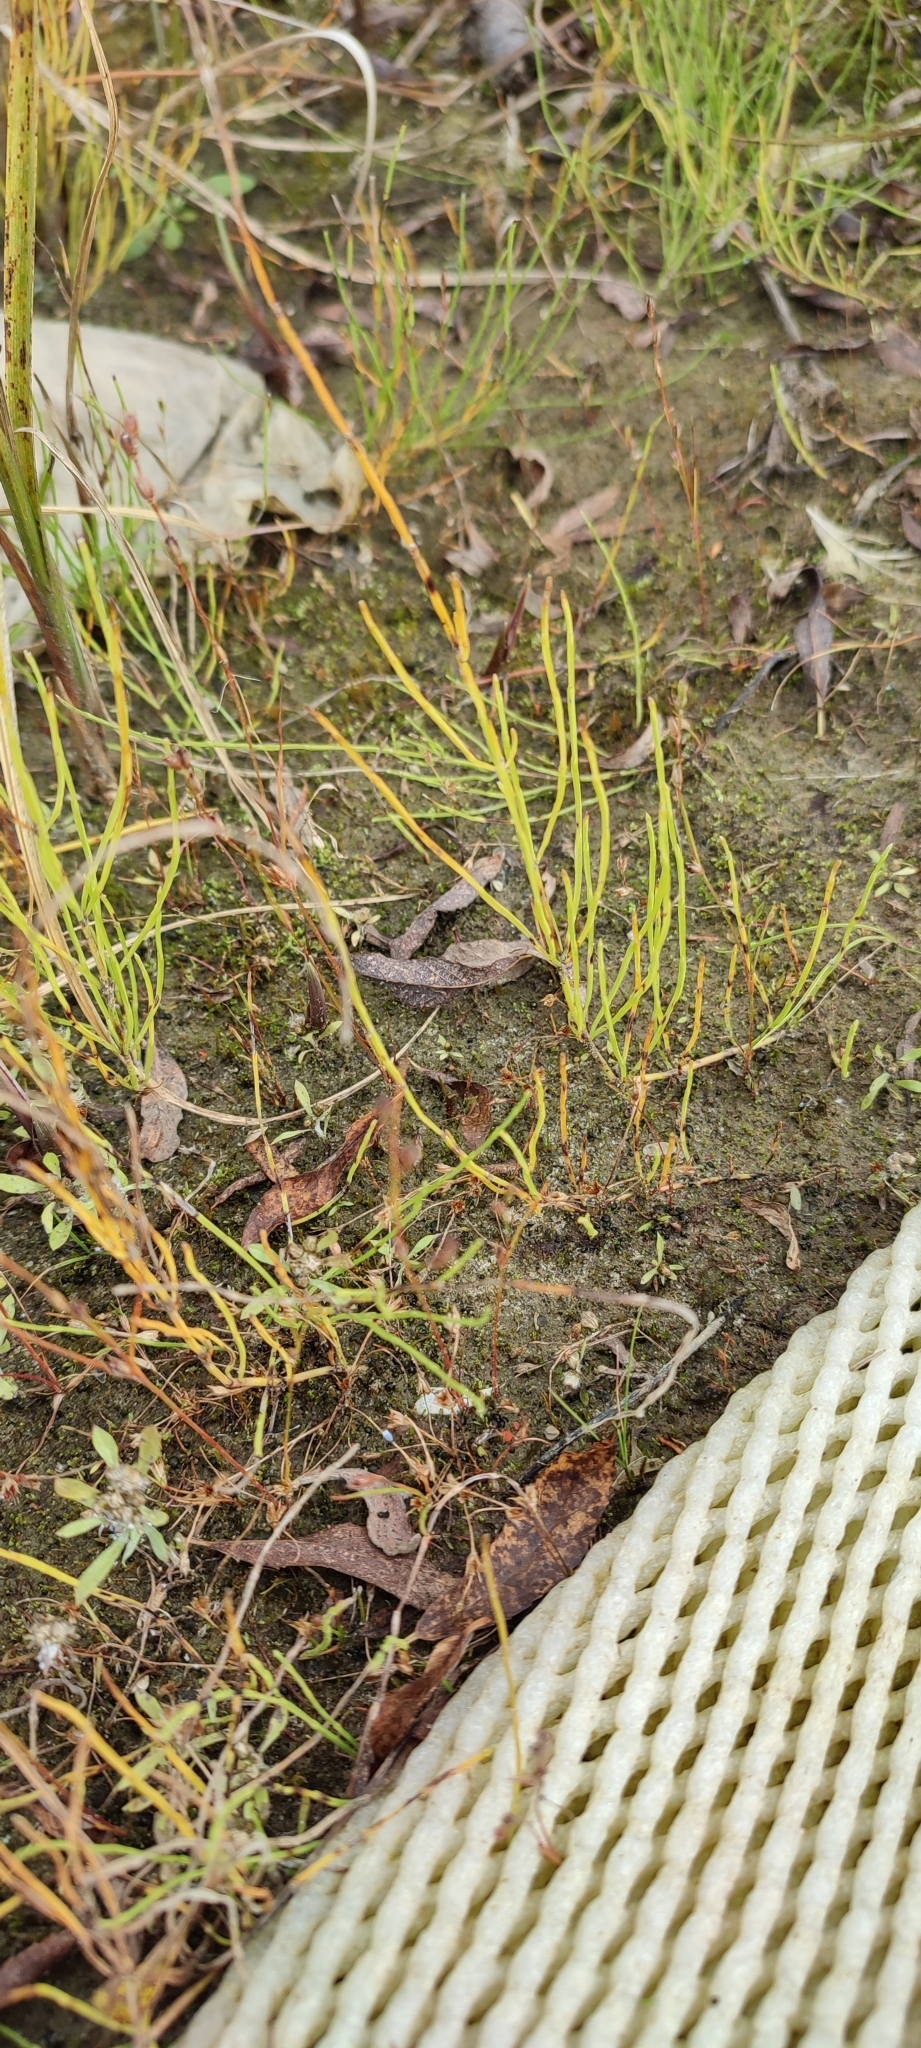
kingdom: Plantae
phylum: Tracheophyta
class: Polypodiopsida
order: Equisetales
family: Equisetaceae
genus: Equisetum
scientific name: Equisetum palustre
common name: Marsh horsetail
